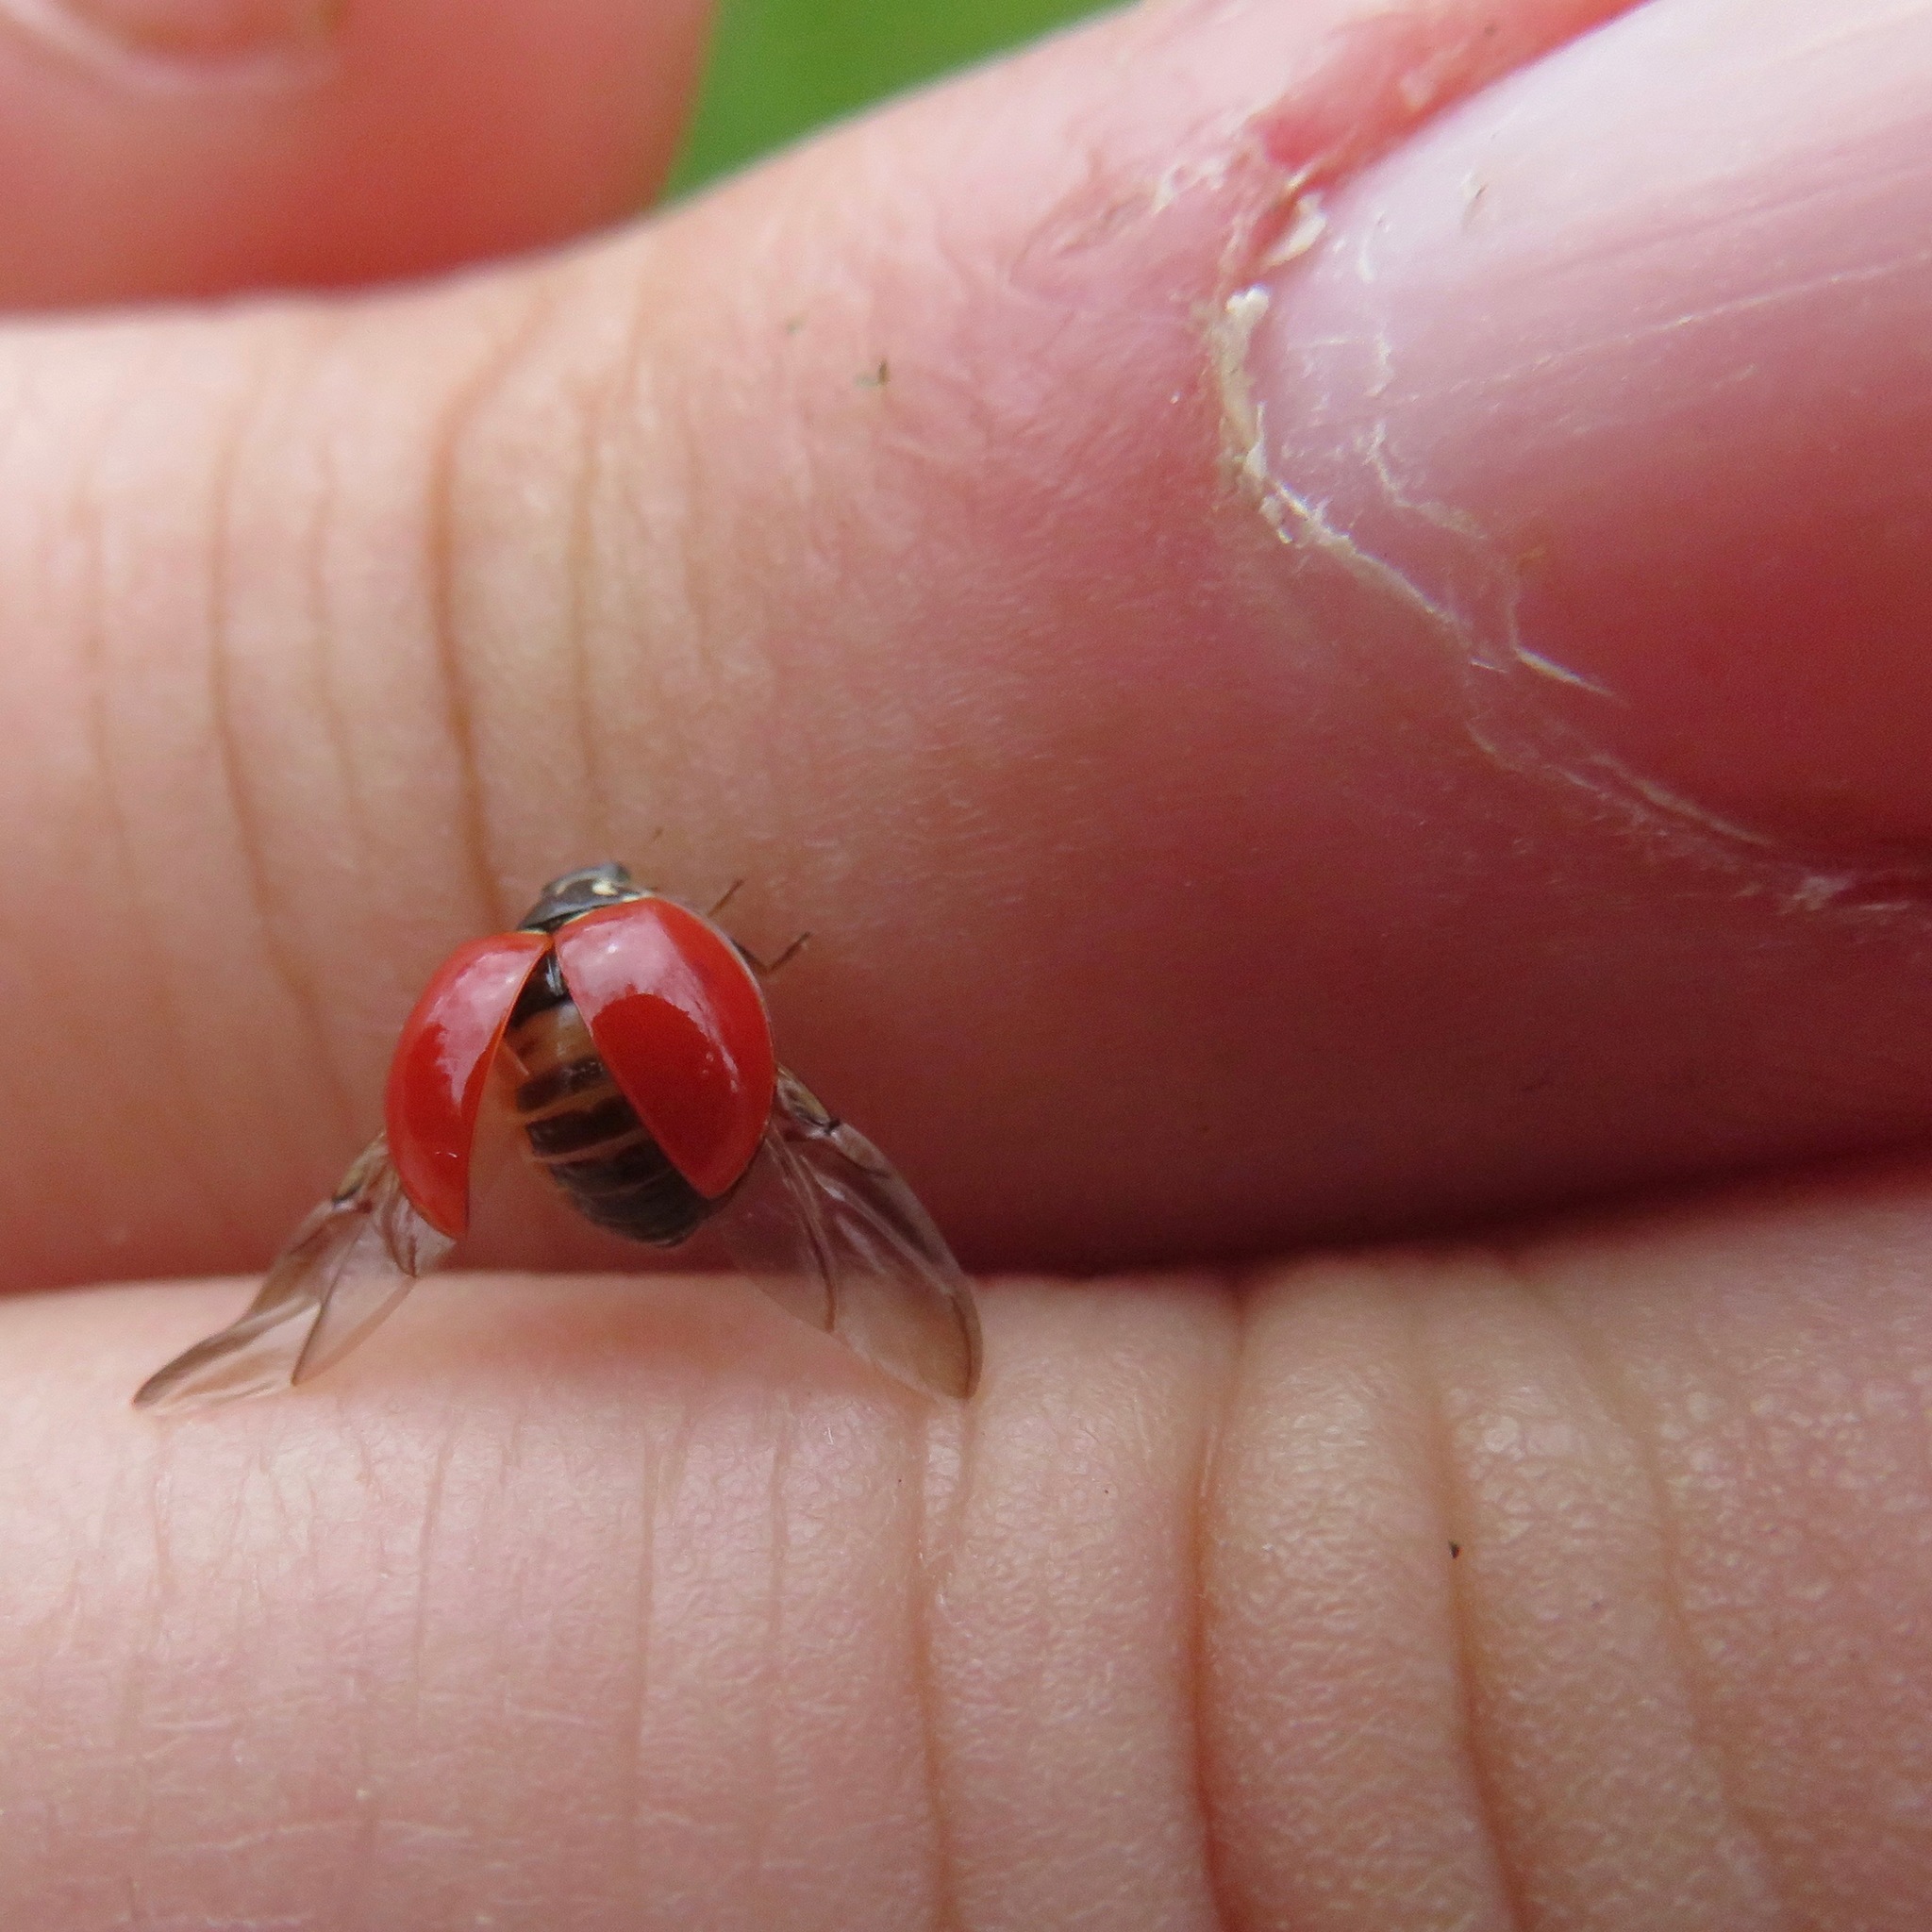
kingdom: Animalia
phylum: Arthropoda
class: Insecta
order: Coleoptera
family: Coccinellidae
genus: Cycloneda
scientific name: Cycloneda polita
